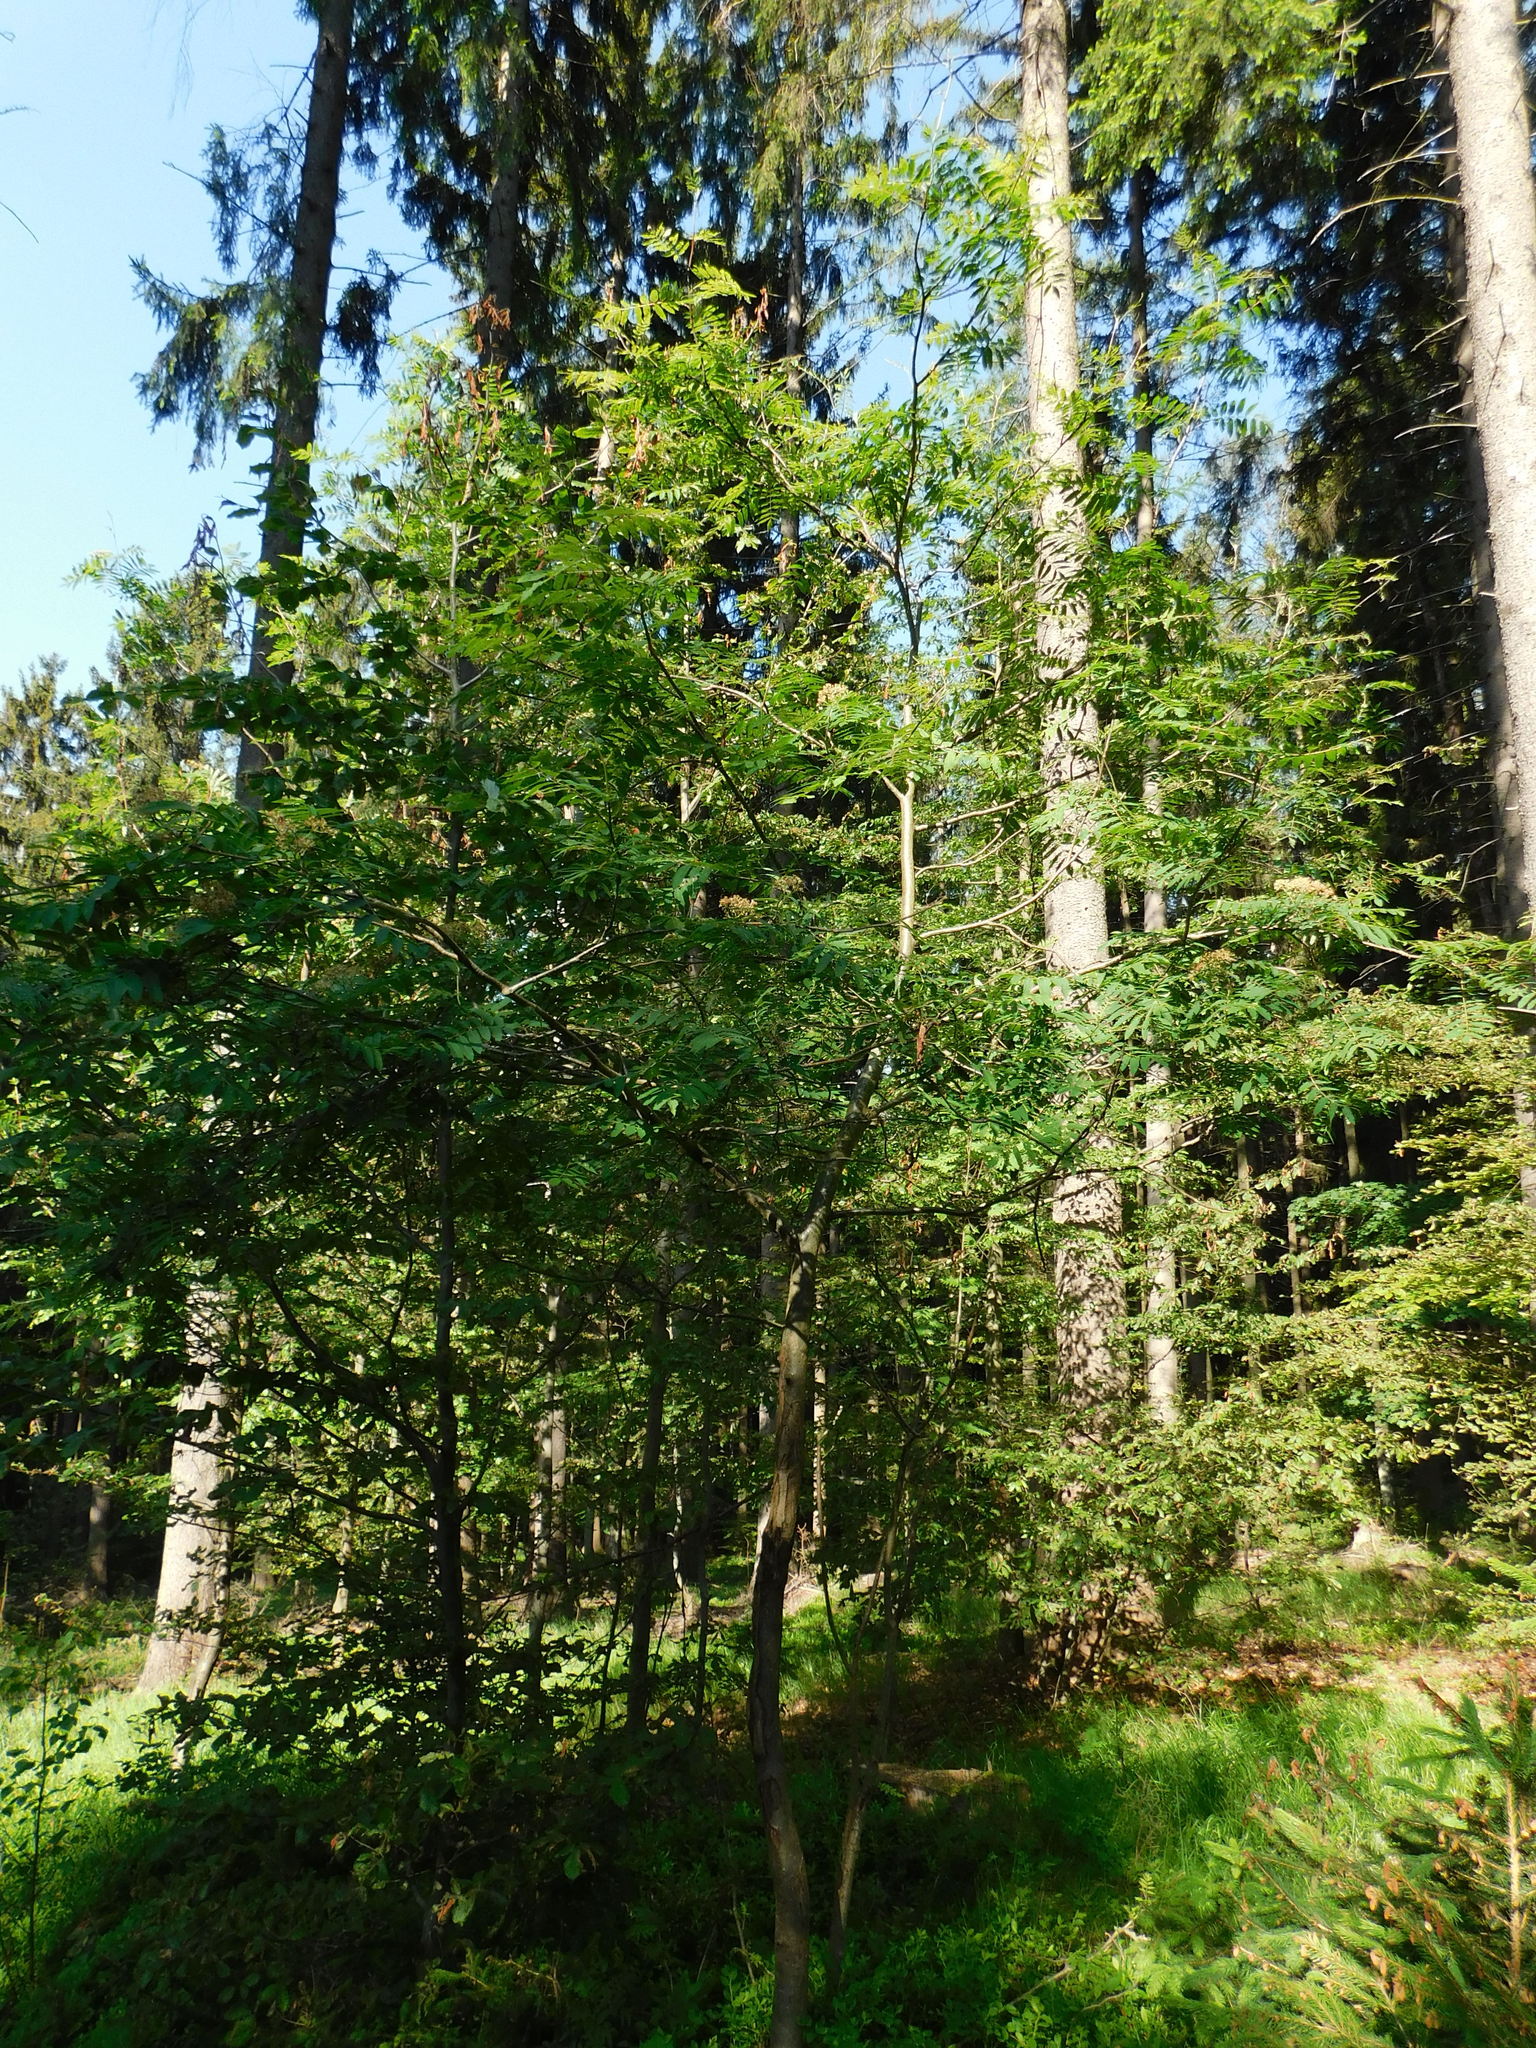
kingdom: Plantae
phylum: Tracheophyta
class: Magnoliopsida
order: Rosales
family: Rosaceae
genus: Sorbus
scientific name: Sorbus aucuparia
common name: Rowan
